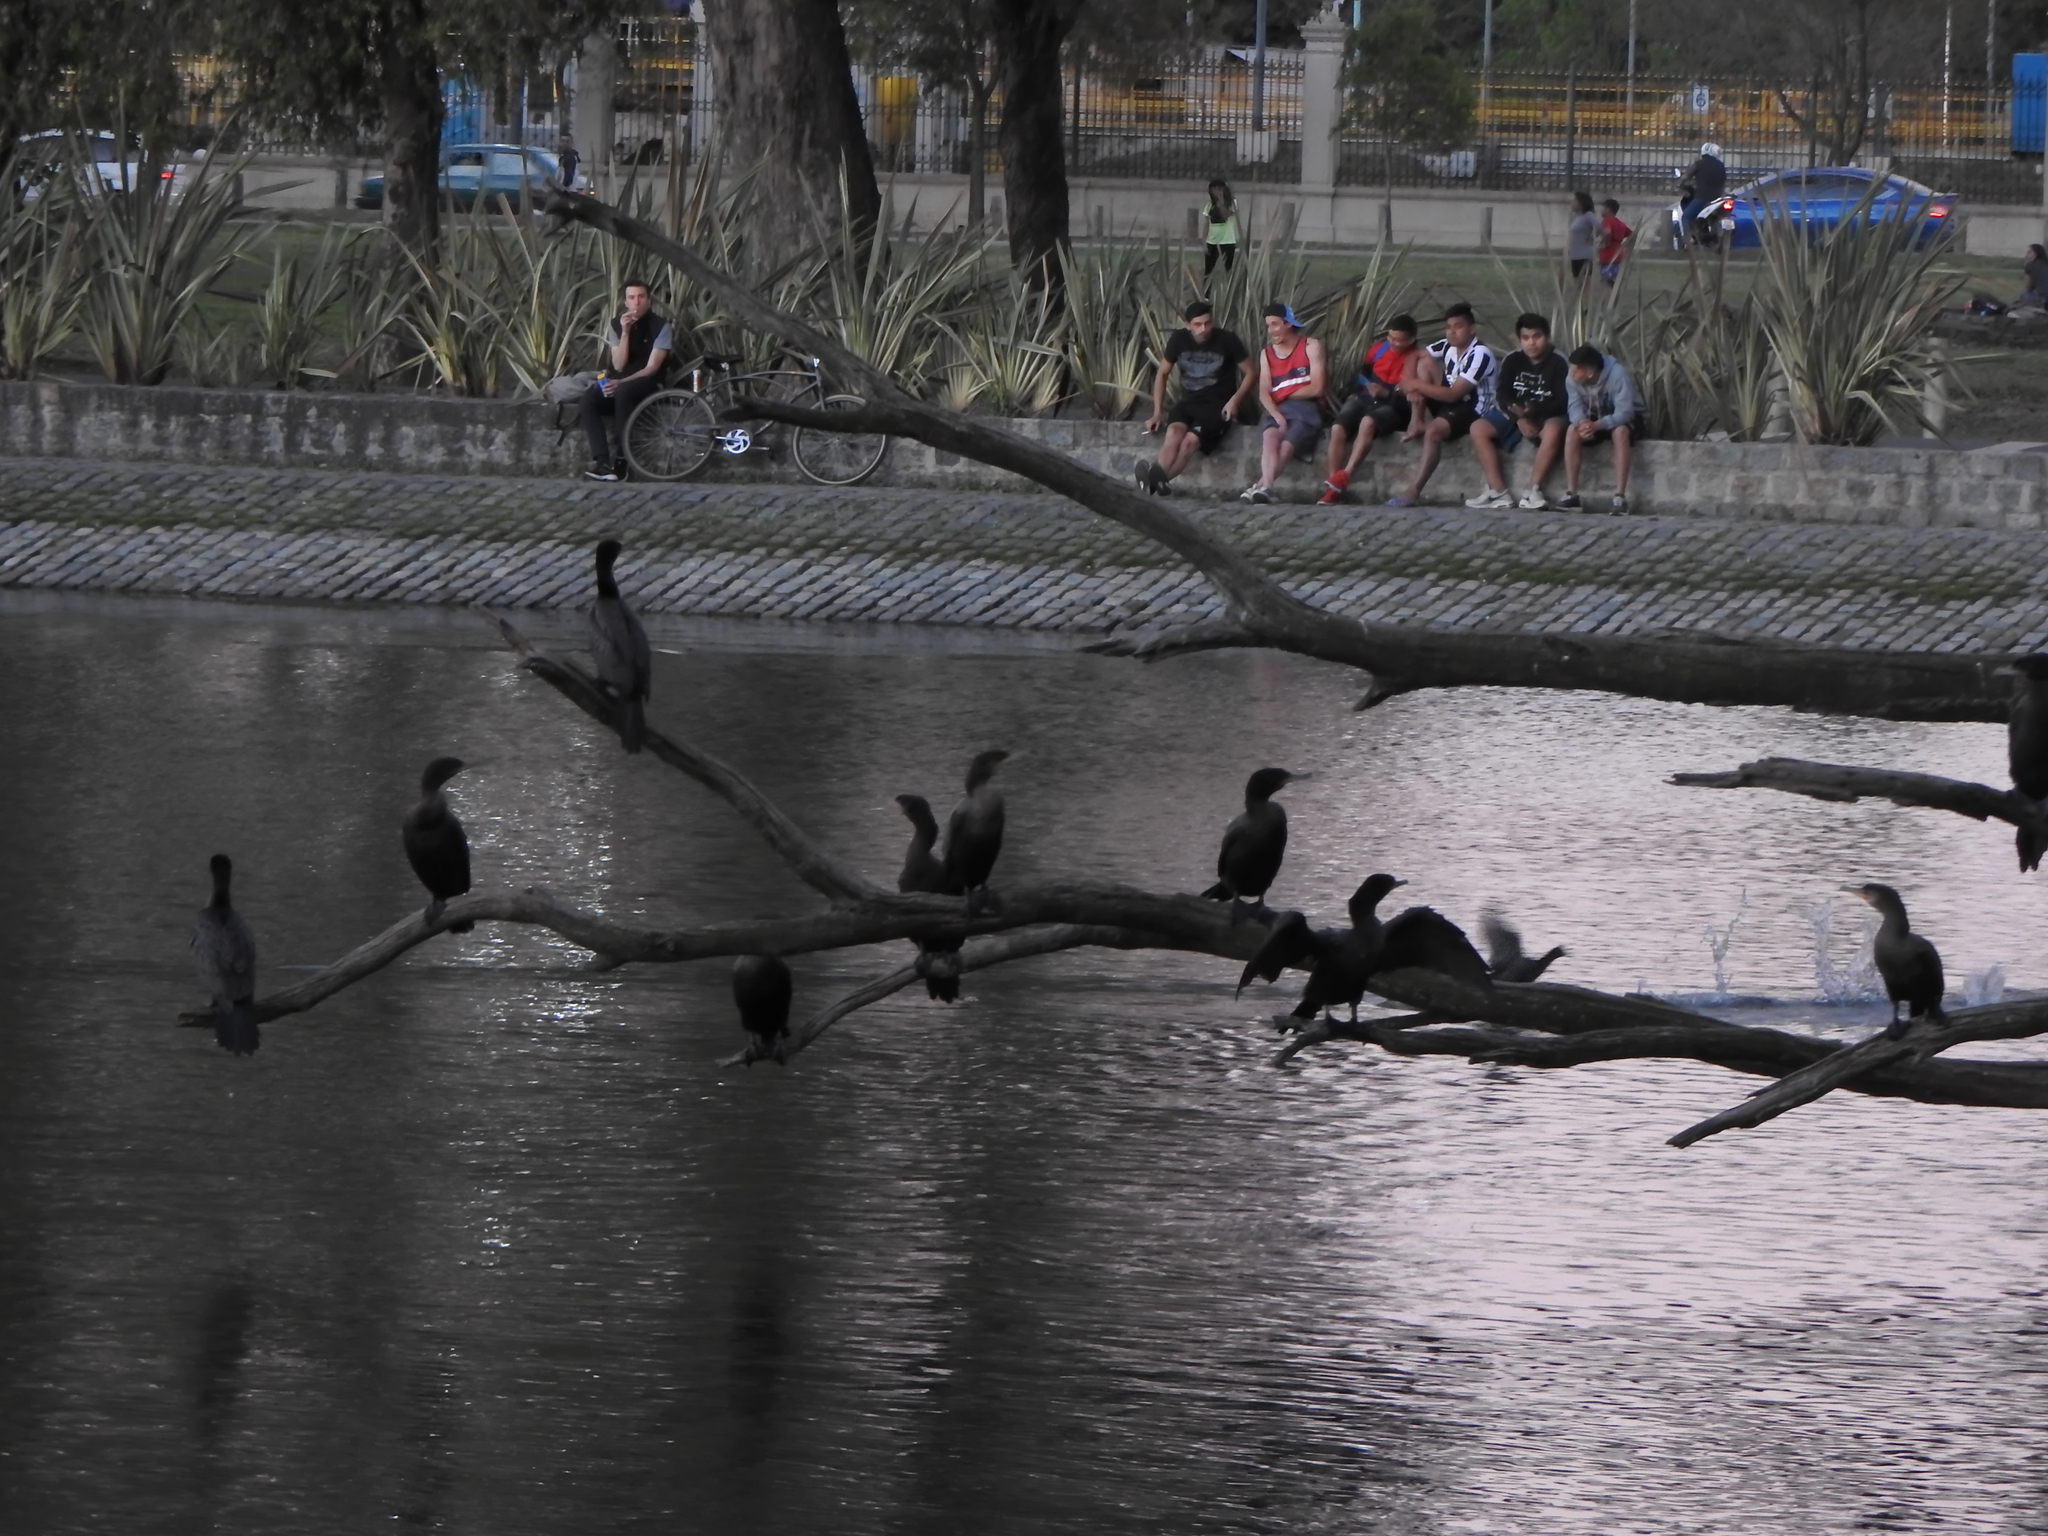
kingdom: Animalia
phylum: Chordata
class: Aves
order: Suliformes
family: Phalacrocoracidae
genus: Phalacrocorax
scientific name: Phalacrocorax brasilianus
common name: Neotropic cormorant
